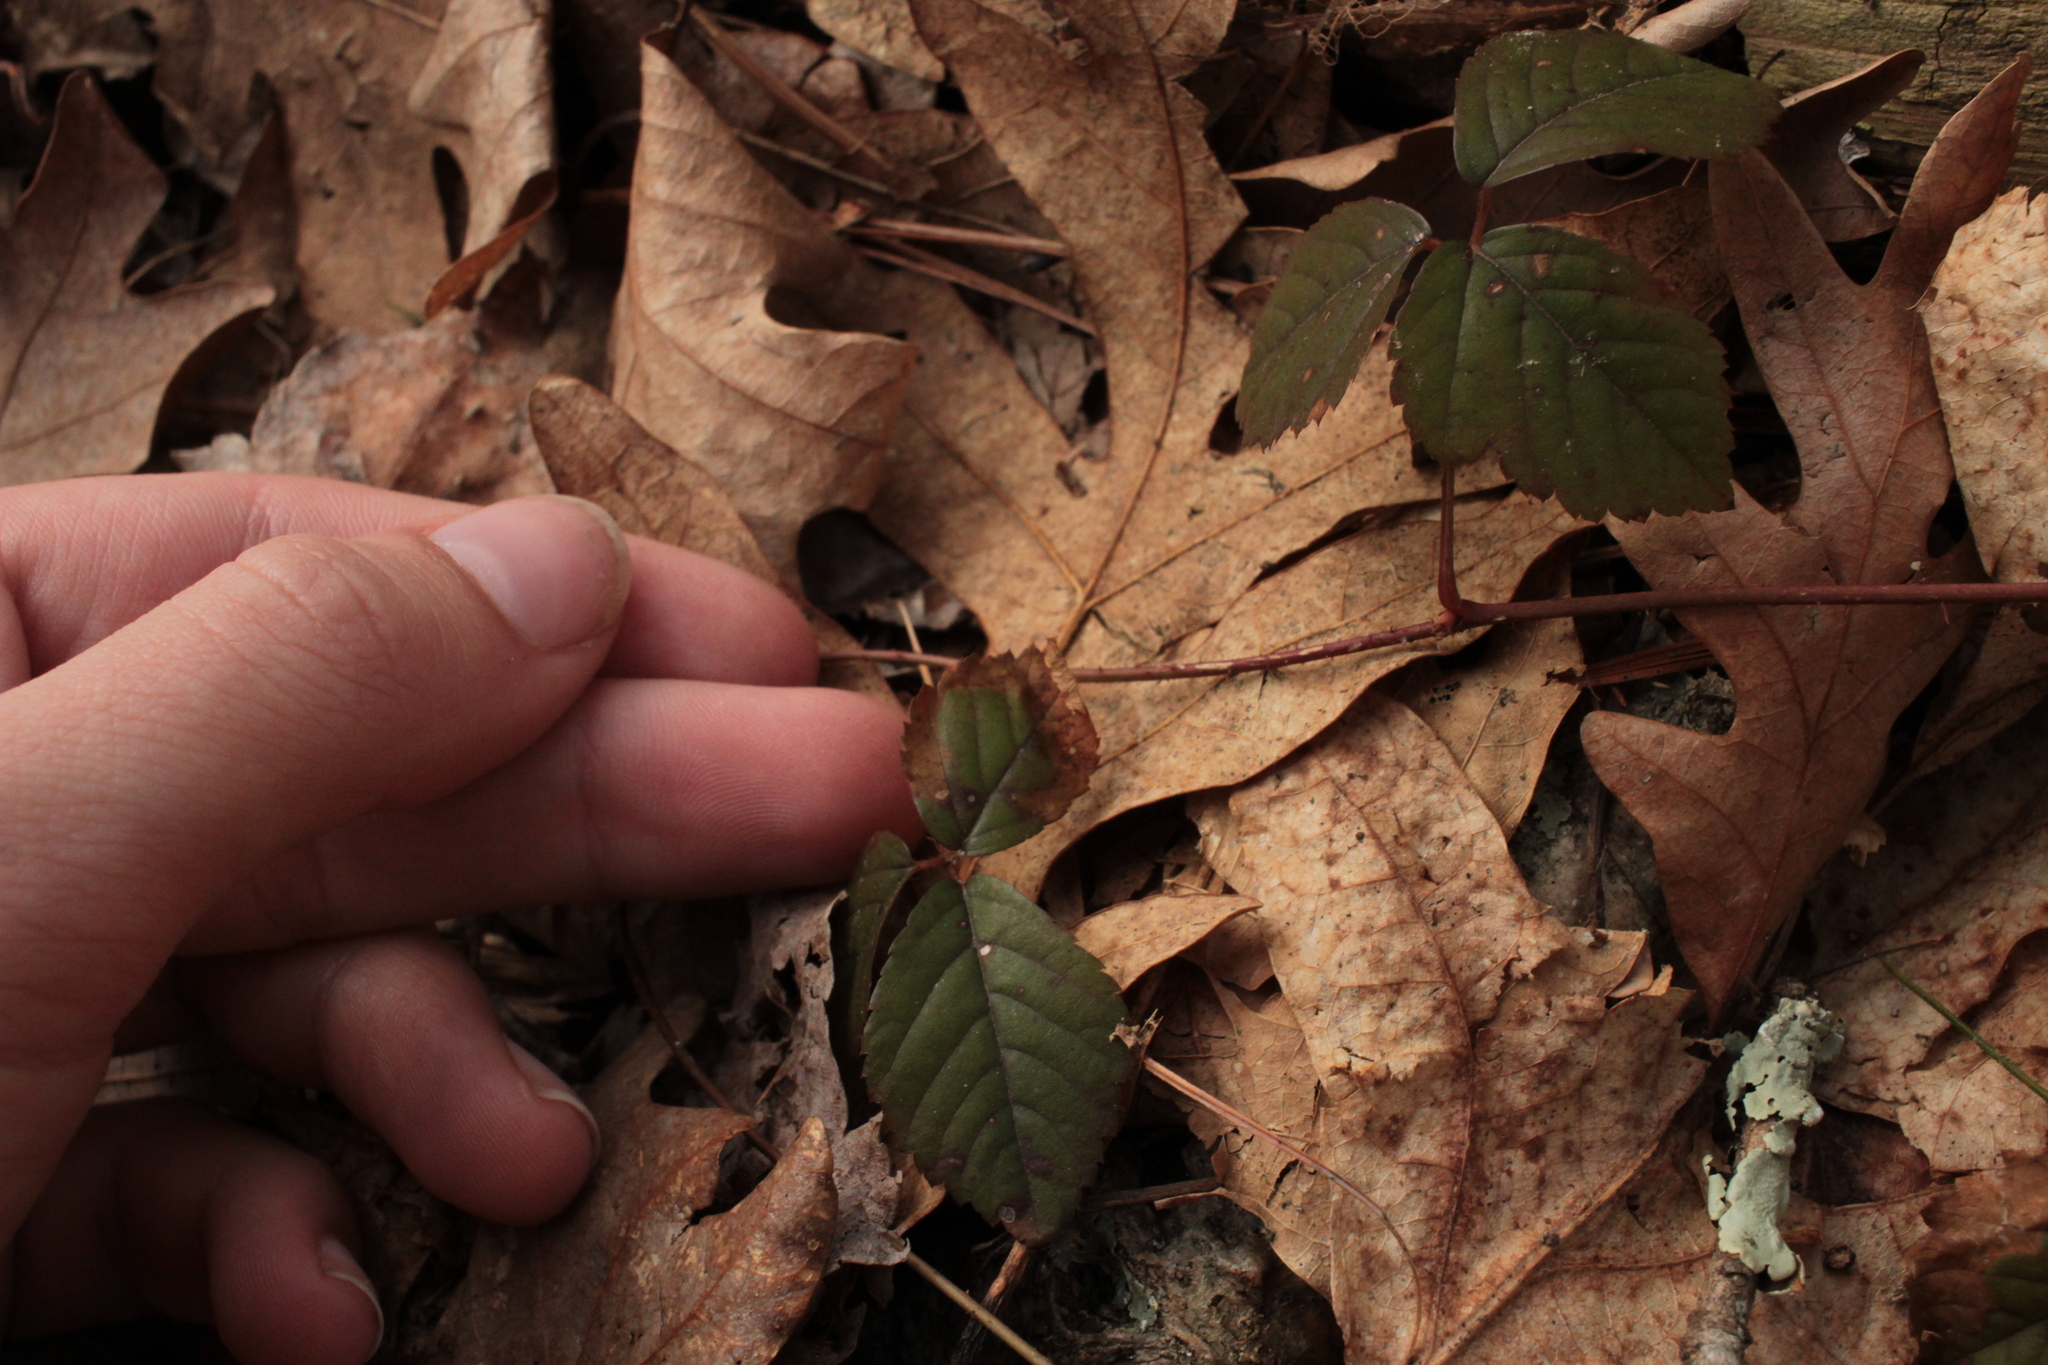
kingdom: Plantae
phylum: Tracheophyta
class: Magnoliopsida
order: Rosales
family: Rosaceae
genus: Rubus
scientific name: Rubus hispidus
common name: Running blackberry
